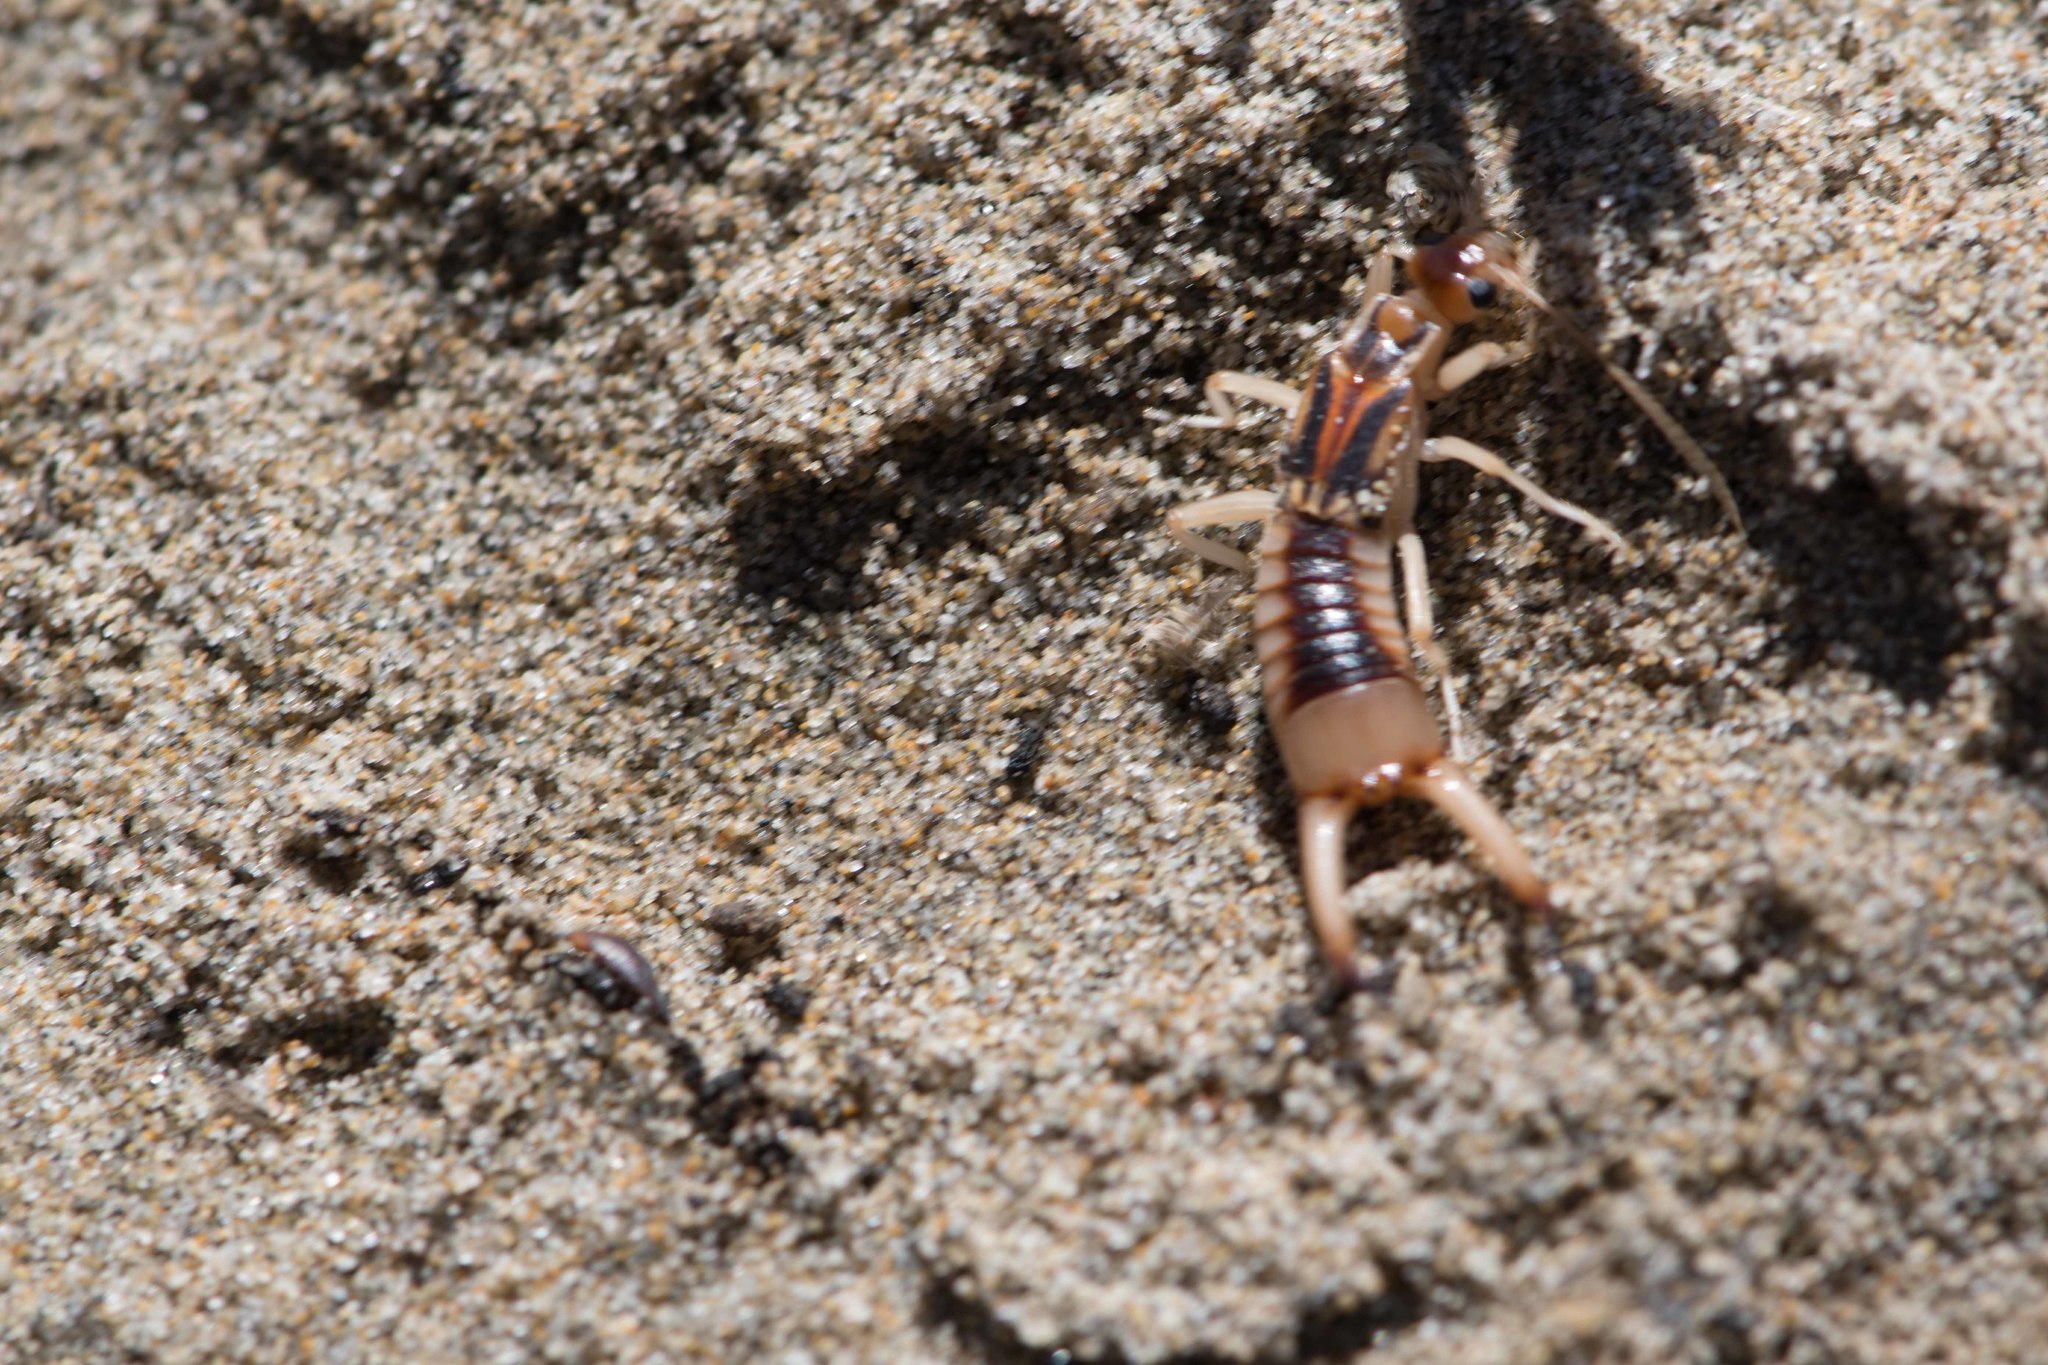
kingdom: Animalia
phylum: Arthropoda
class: Insecta
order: Dermaptera
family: Labiduridae
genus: Labidura
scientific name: Labidura riparia
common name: Striped earwig
